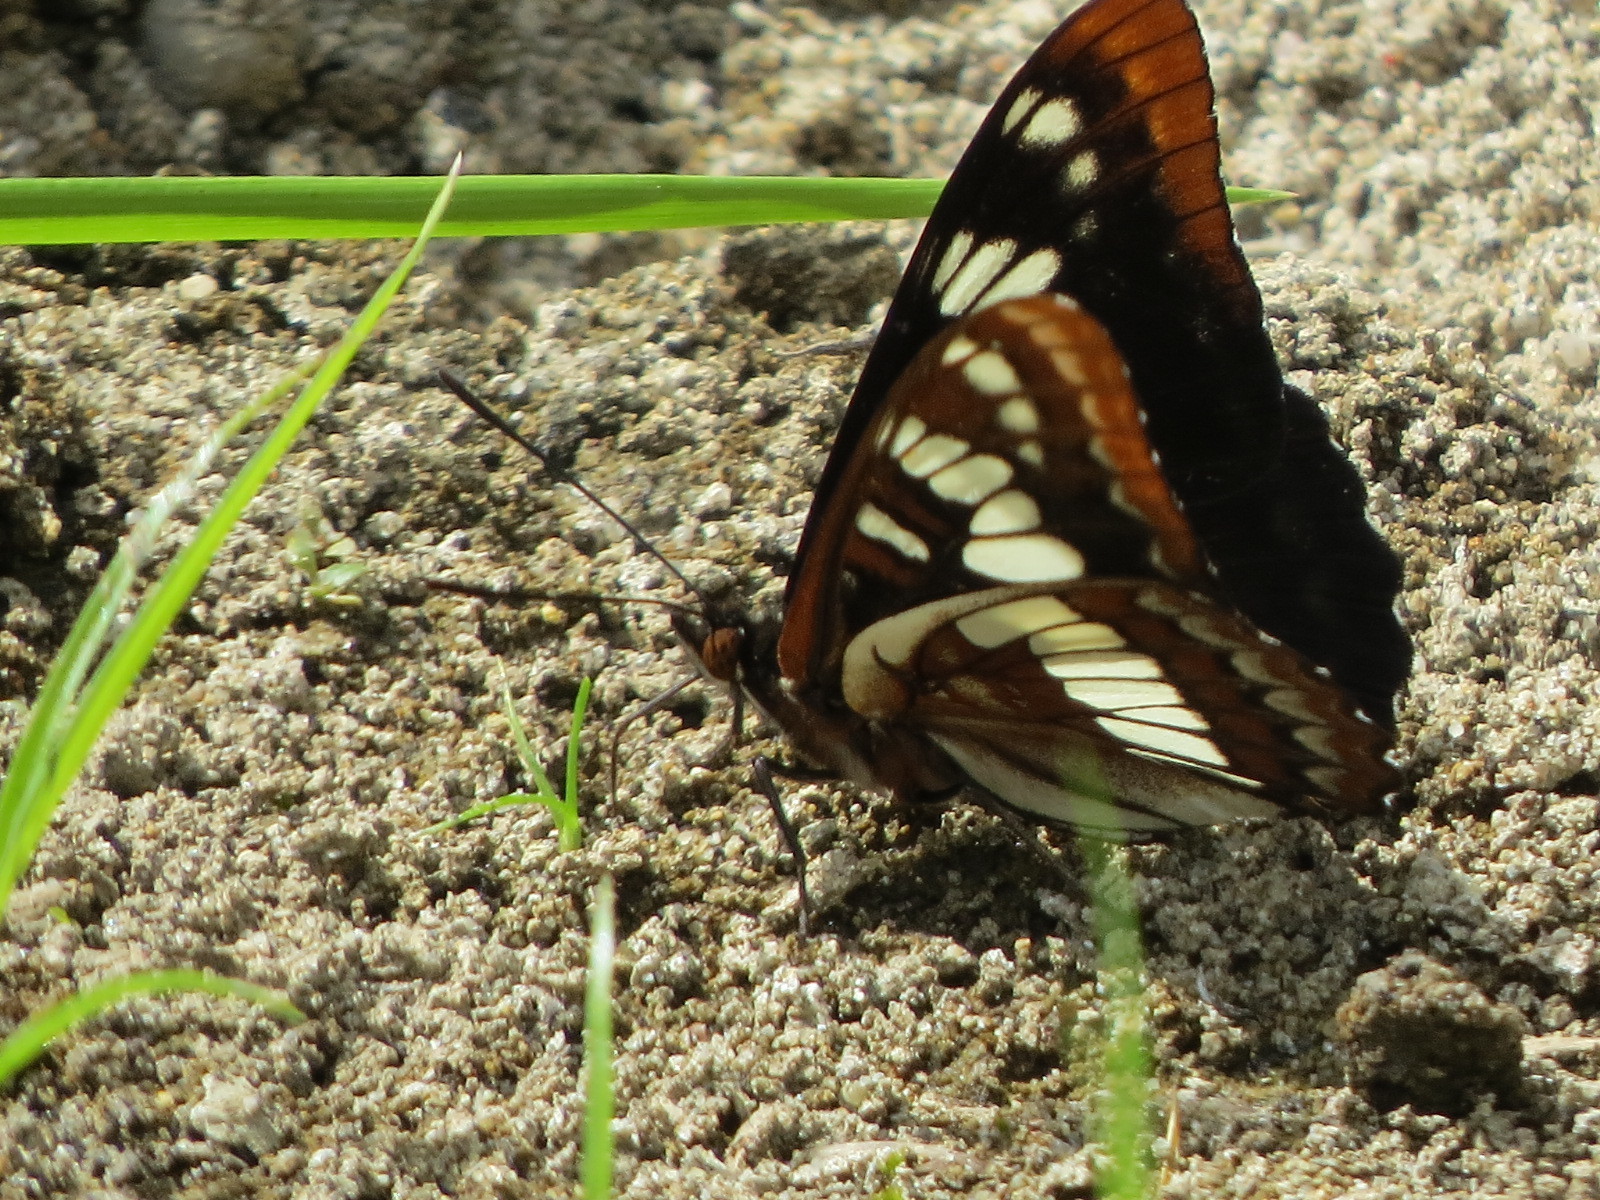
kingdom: Animalia
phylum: Arthropoda
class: Insecta
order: Lepidoptera
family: Nymphalidae
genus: Limenitis
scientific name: Limenitis lorquini
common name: Lorquin's admiral
